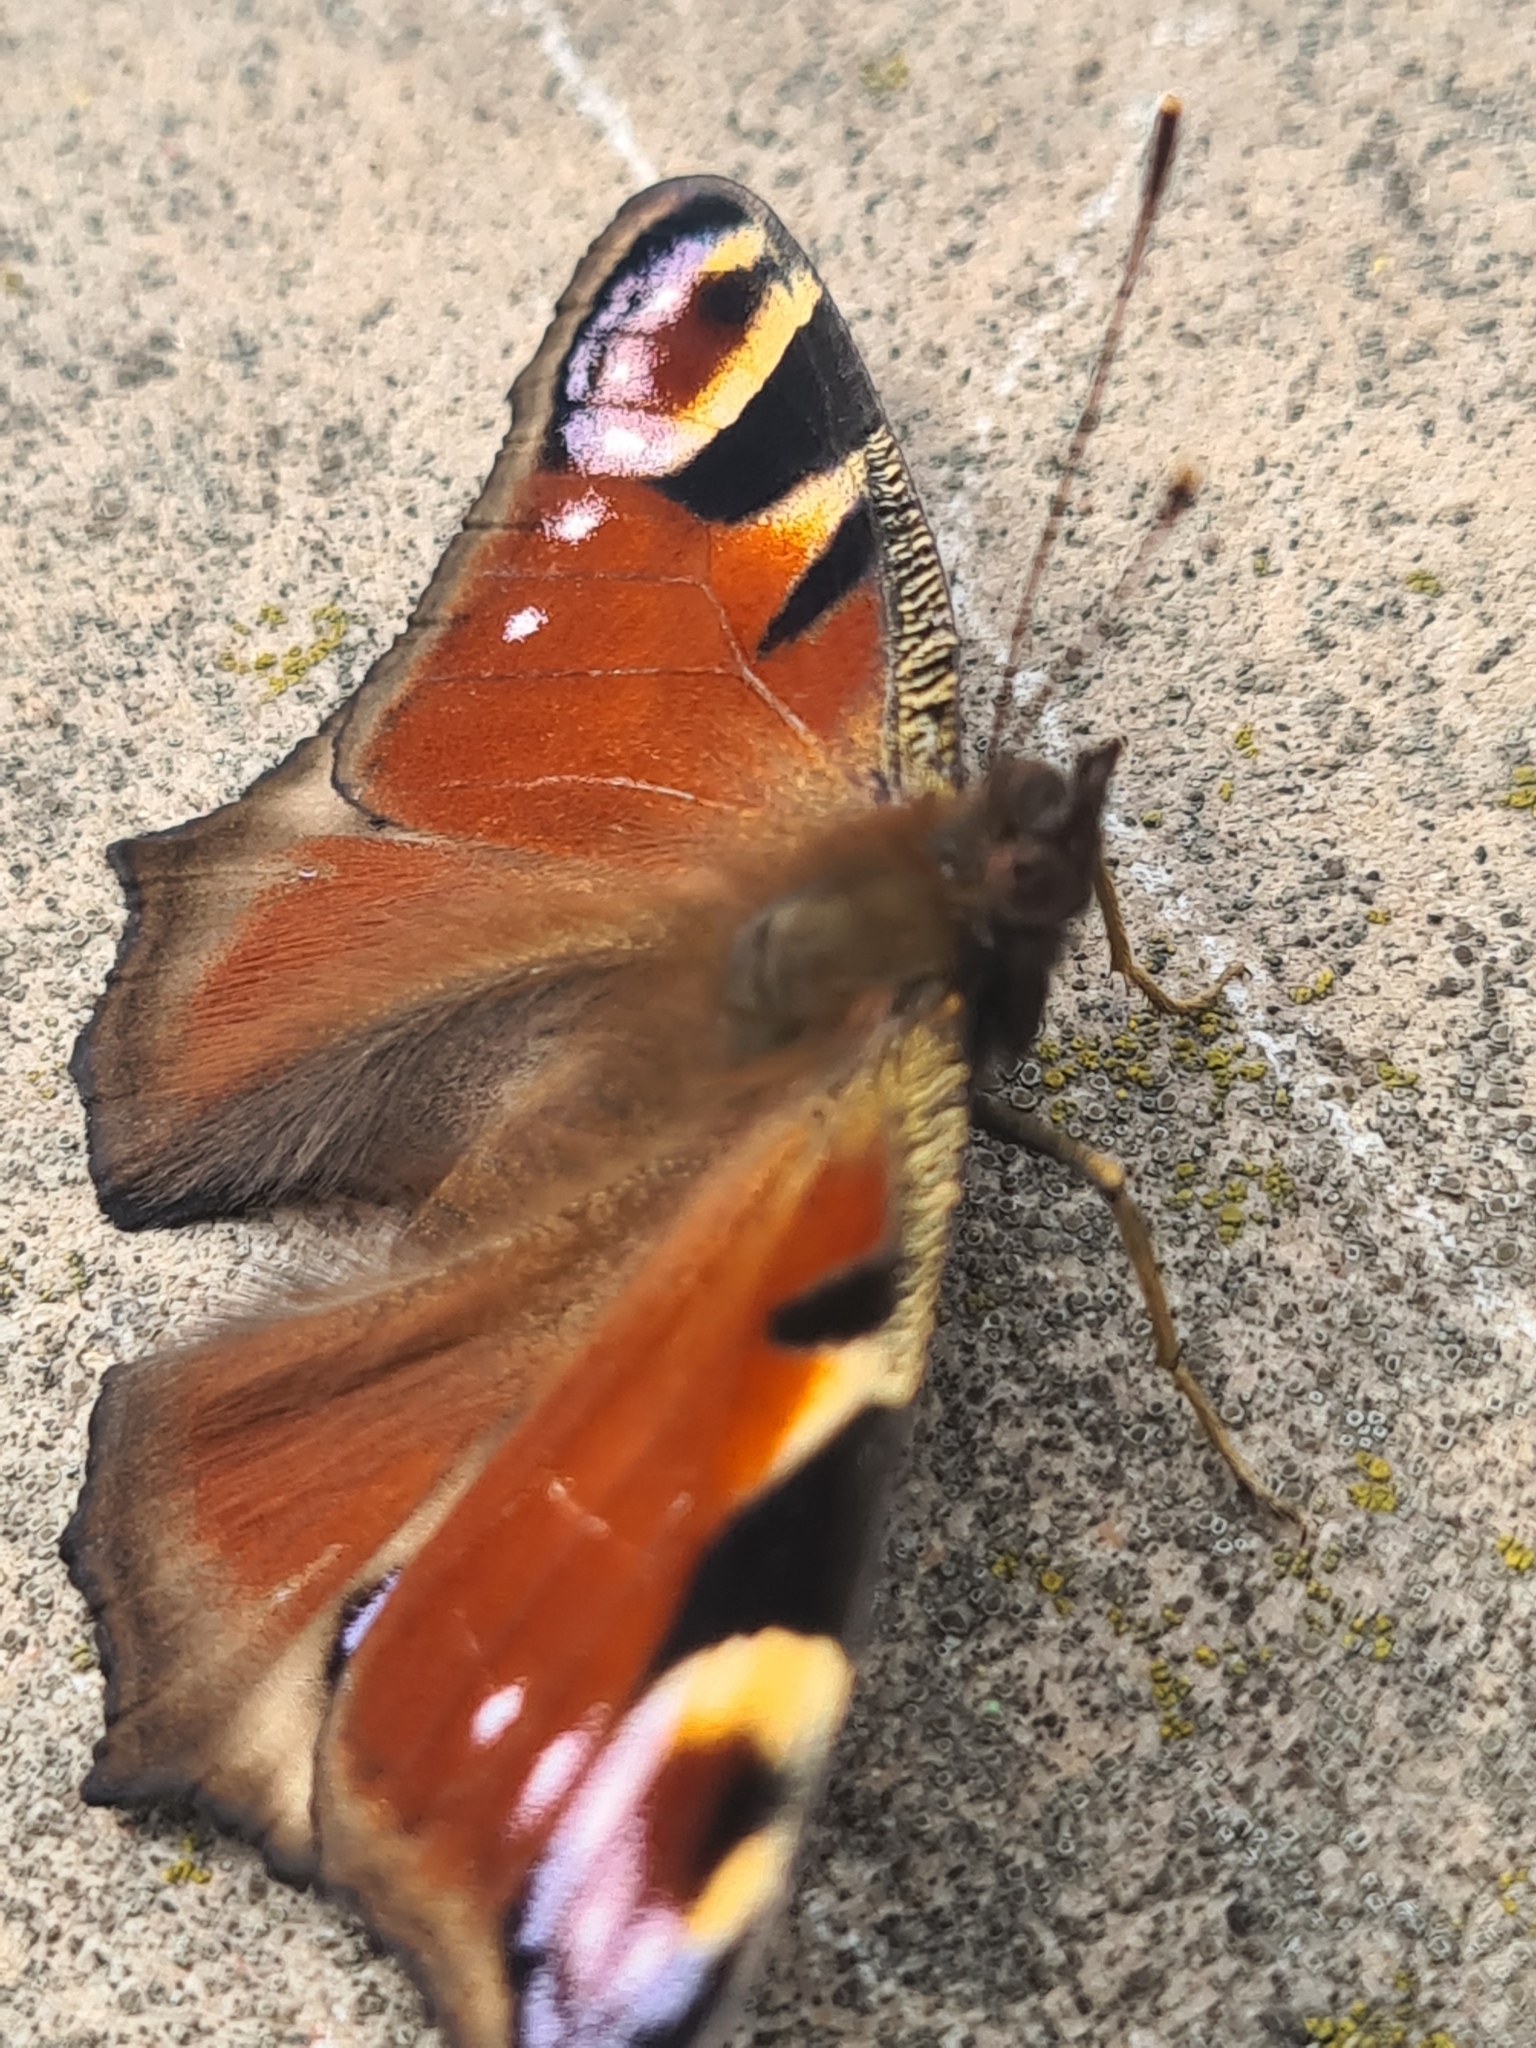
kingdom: Animalia
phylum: Arthropoda
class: Insecta
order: Lepidoptera
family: Nymphalidae
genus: Aglais
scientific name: Aglais io
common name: Peacock
